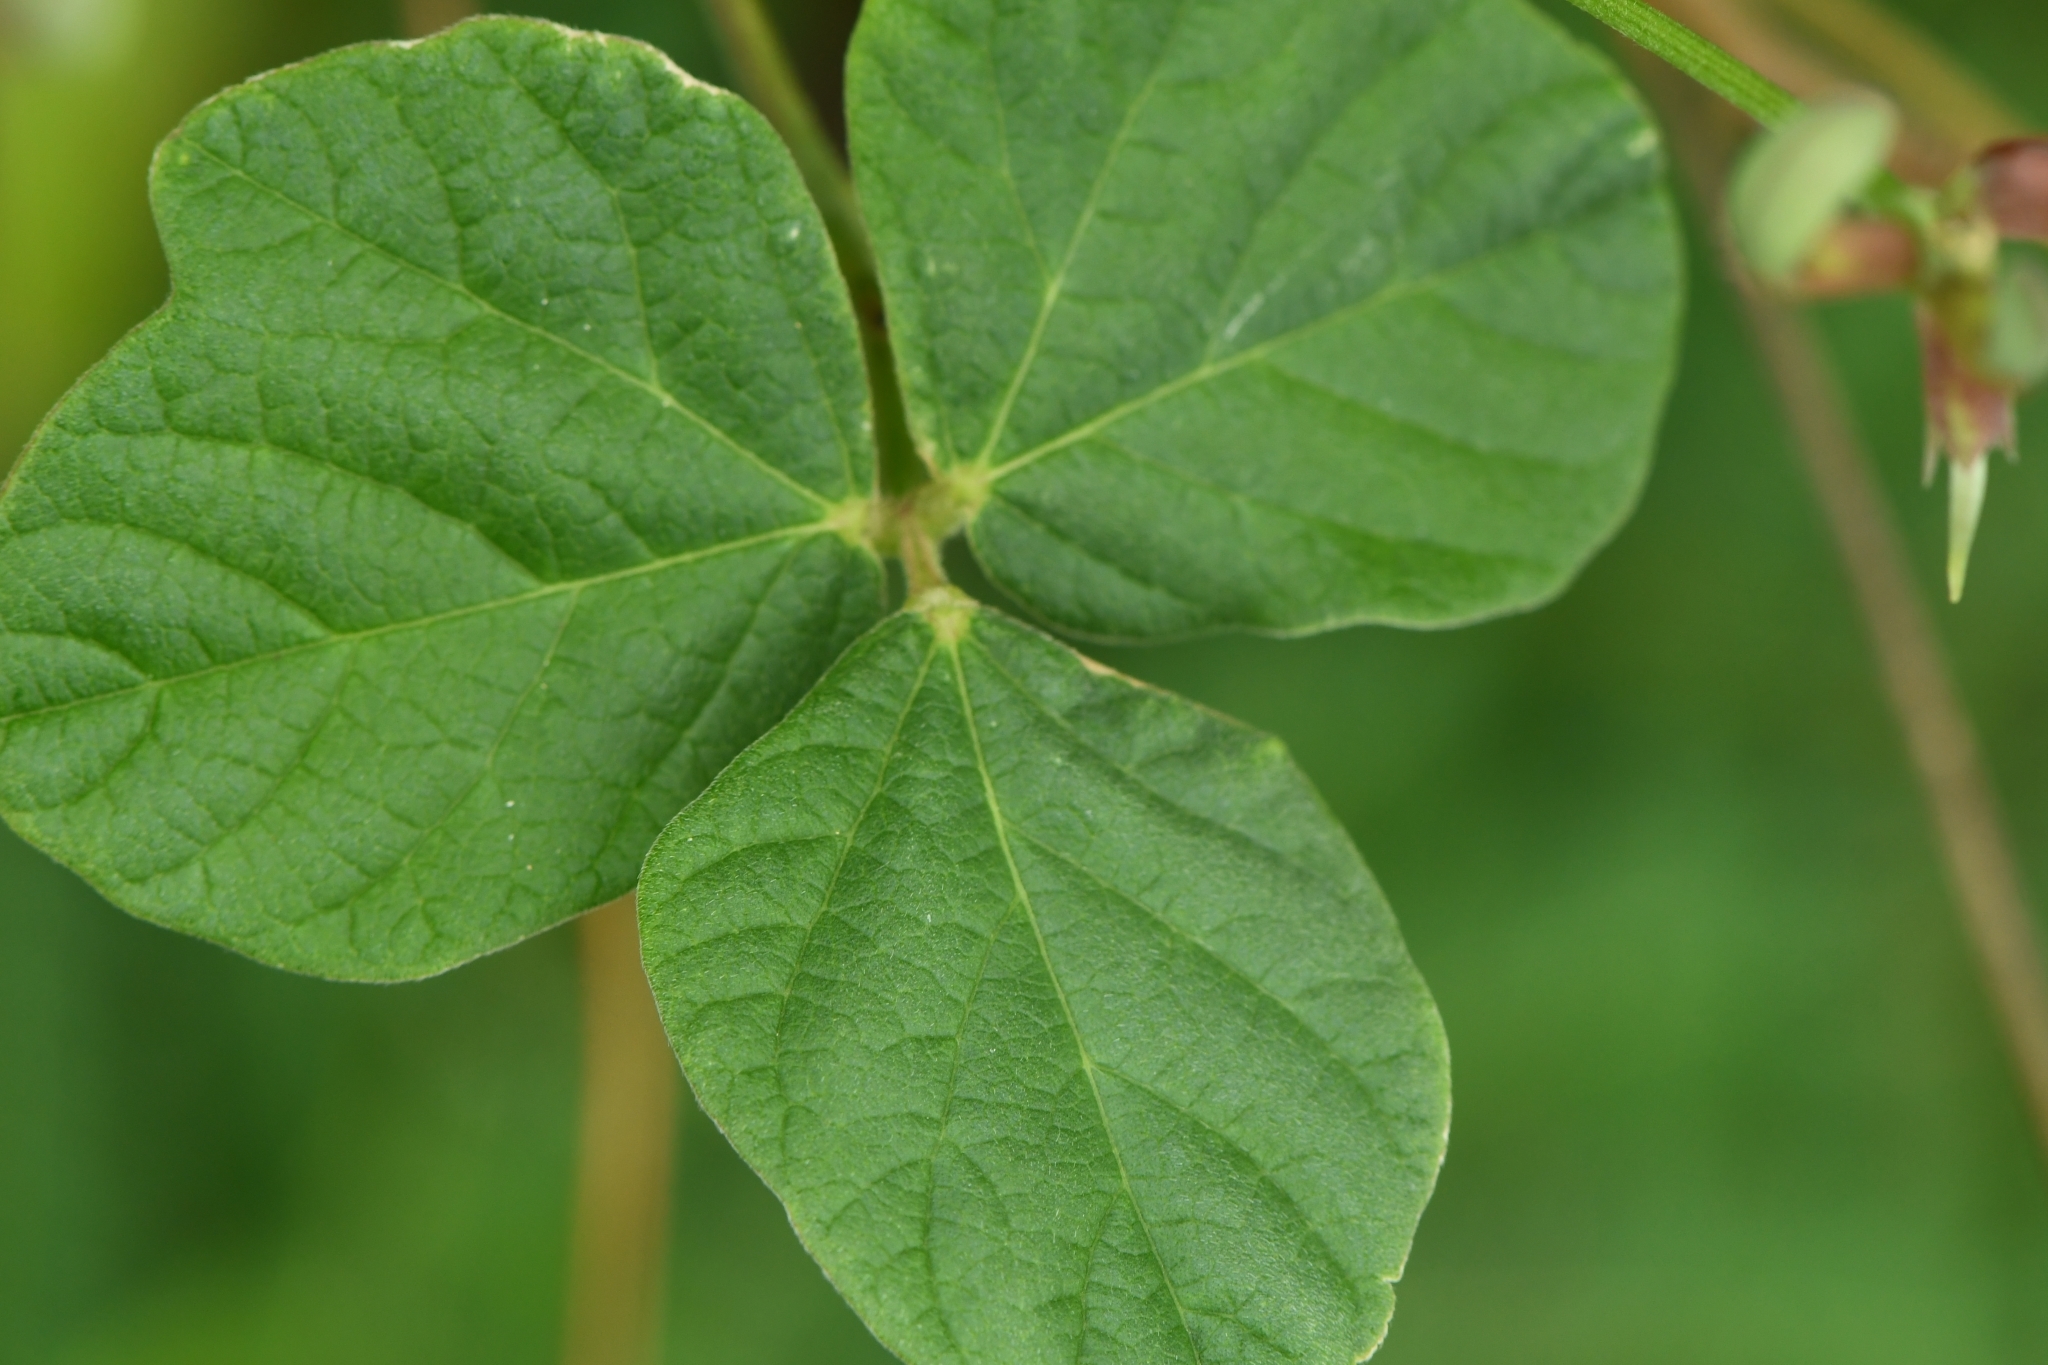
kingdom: Plantae
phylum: Tracheophyta
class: Magnoliopsida
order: Fabales
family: Fabaceae
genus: Macroptilium
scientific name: Macroptilium atropurpureum
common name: Purple bushbean
